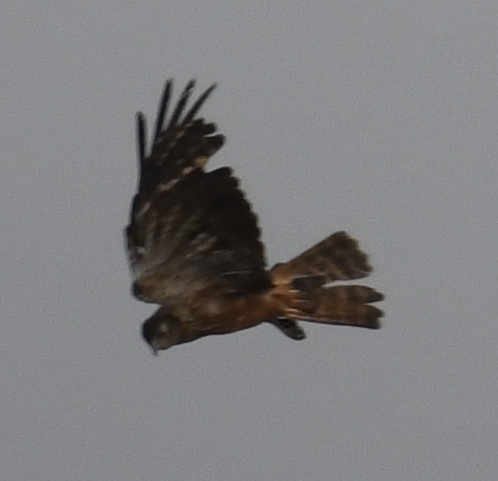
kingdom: Animalia
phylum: Chordata
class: Aves
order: Accipitriformes
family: Accipitridae
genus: Circus
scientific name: Circus ranivorus
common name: African marsh-harrier
